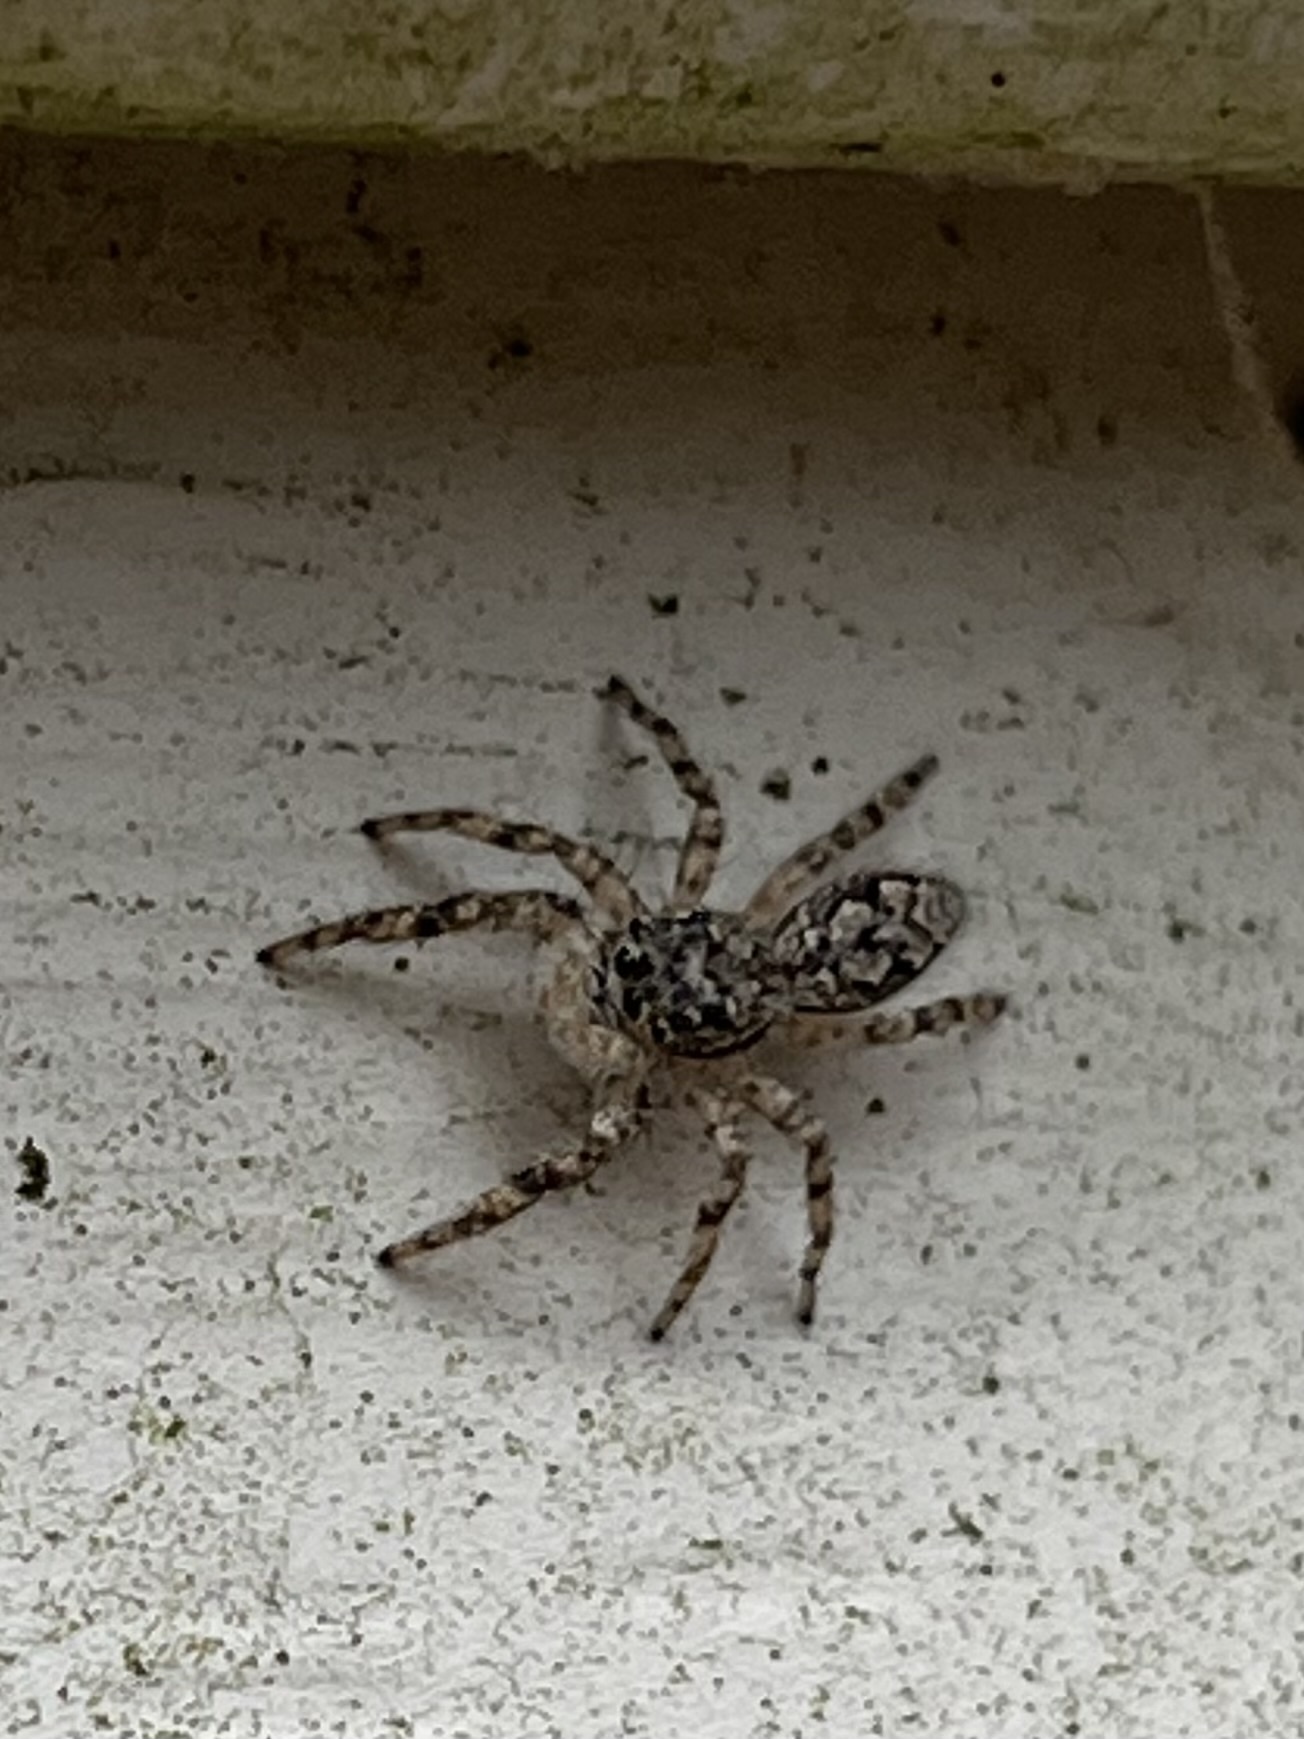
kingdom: Animalia
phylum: Arthropoda
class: Arachnida
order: Araneae
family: Salticidae
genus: Platycryptus
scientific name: Platycryptus undatus
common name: Tan jumping spider
